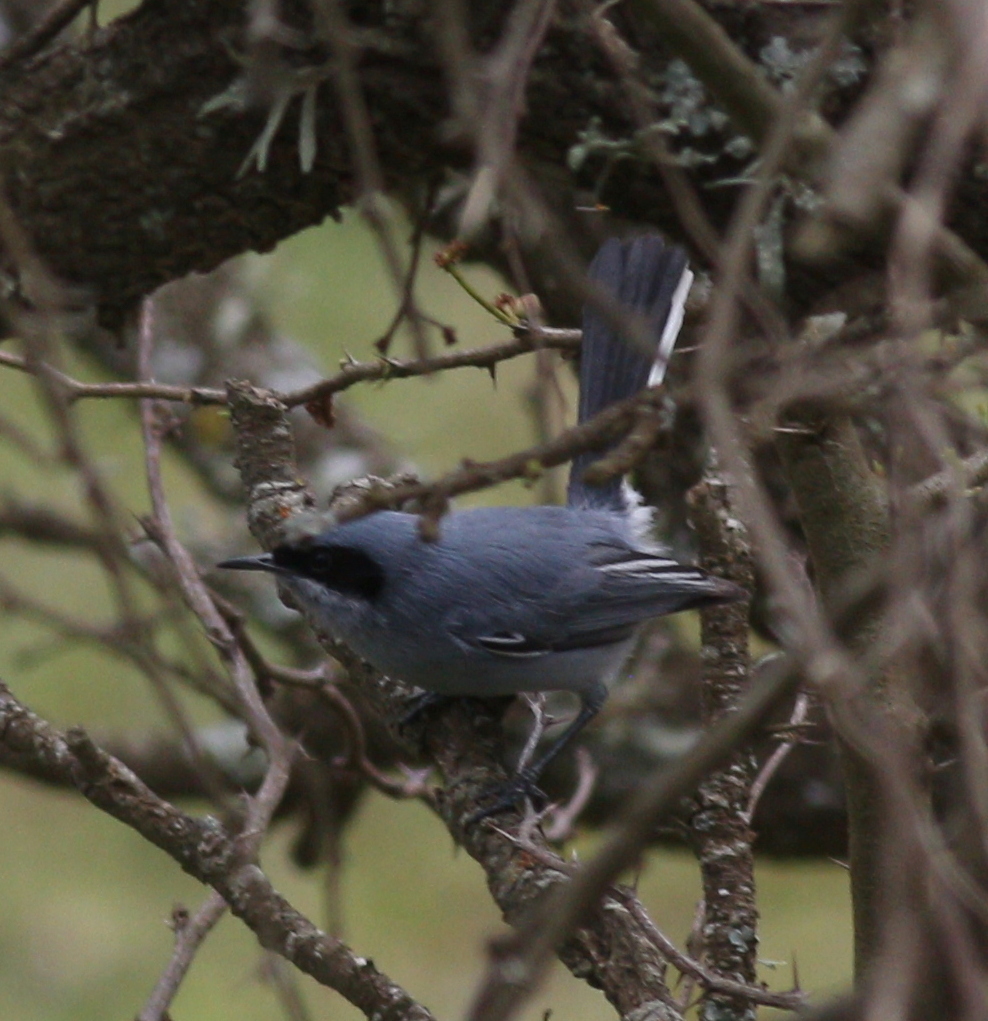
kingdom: Animalia
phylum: Chordata
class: Aves
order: Passeriformes
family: Polioptilidae
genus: Polioptila
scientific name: Polioptila dumicola
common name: Masked gnatcatcher
